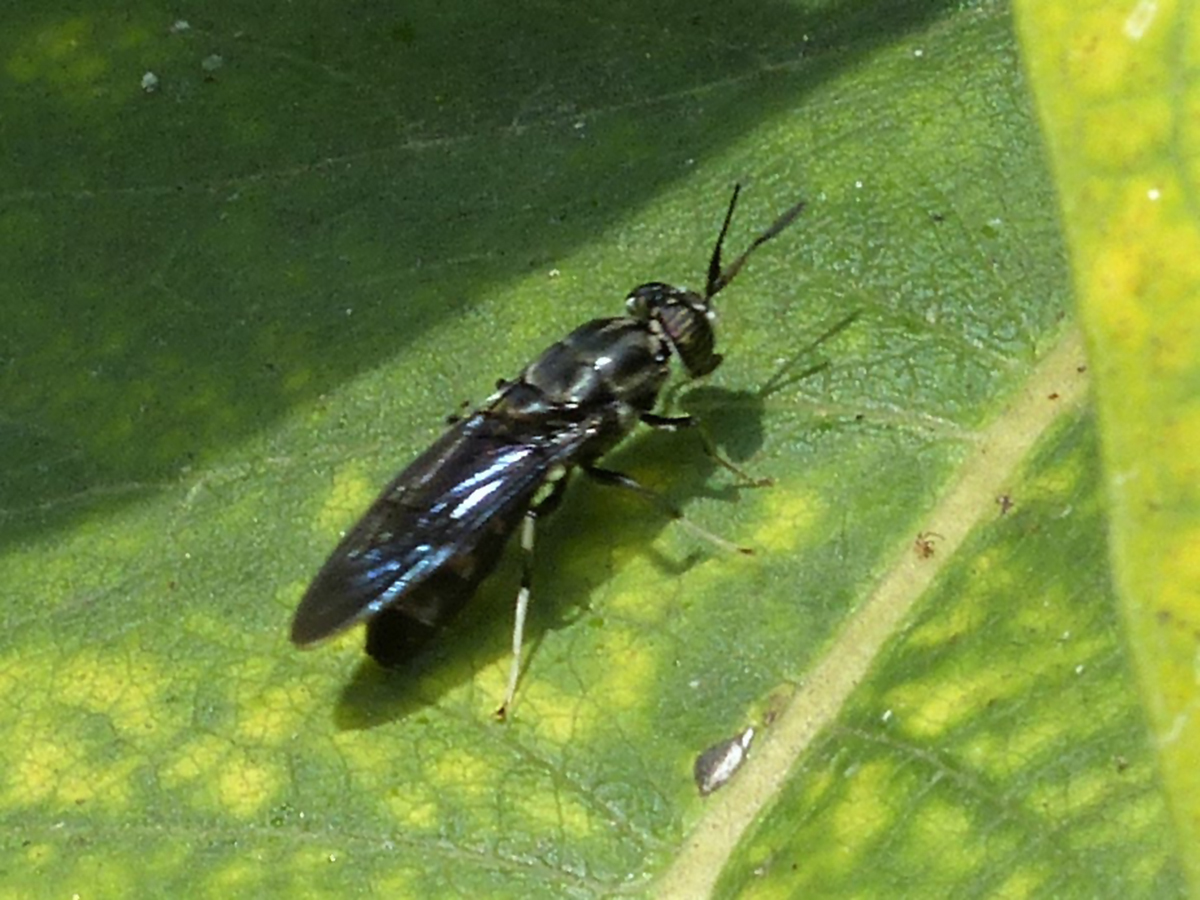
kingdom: Animalia
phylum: Arthropoda
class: Insecta
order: Diptera
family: Stratiomyidae
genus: Hermetia
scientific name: Hermetia illucens
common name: Black soldier fly
